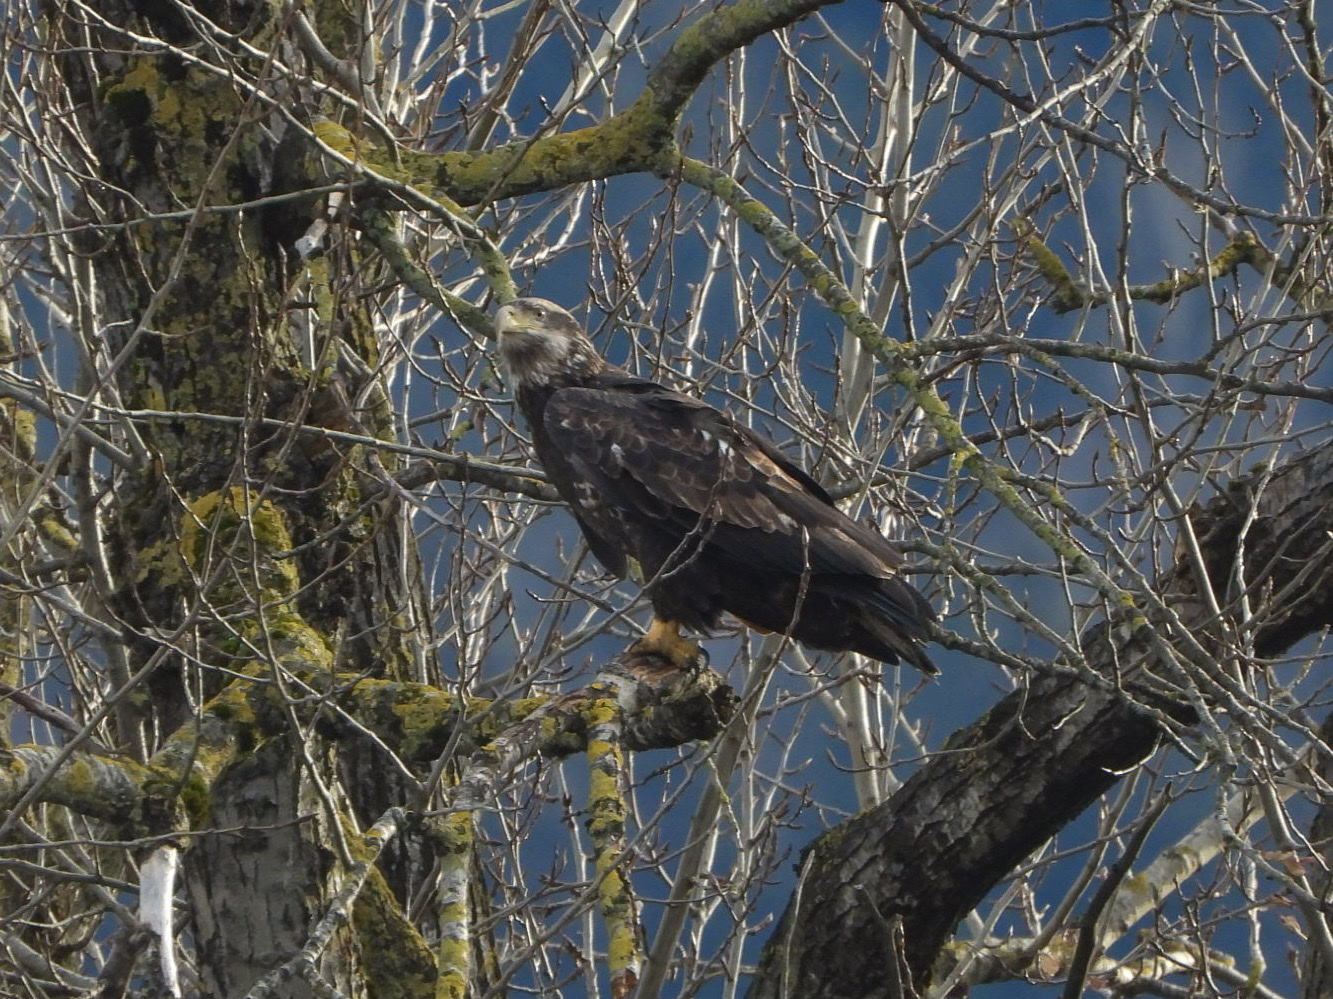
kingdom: Animalia
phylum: Chordata
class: Aves
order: Accipitriformes
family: Accipitridae
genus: Haliaeetus
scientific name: Haliaeetus leucocephalus
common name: Bald eagle
